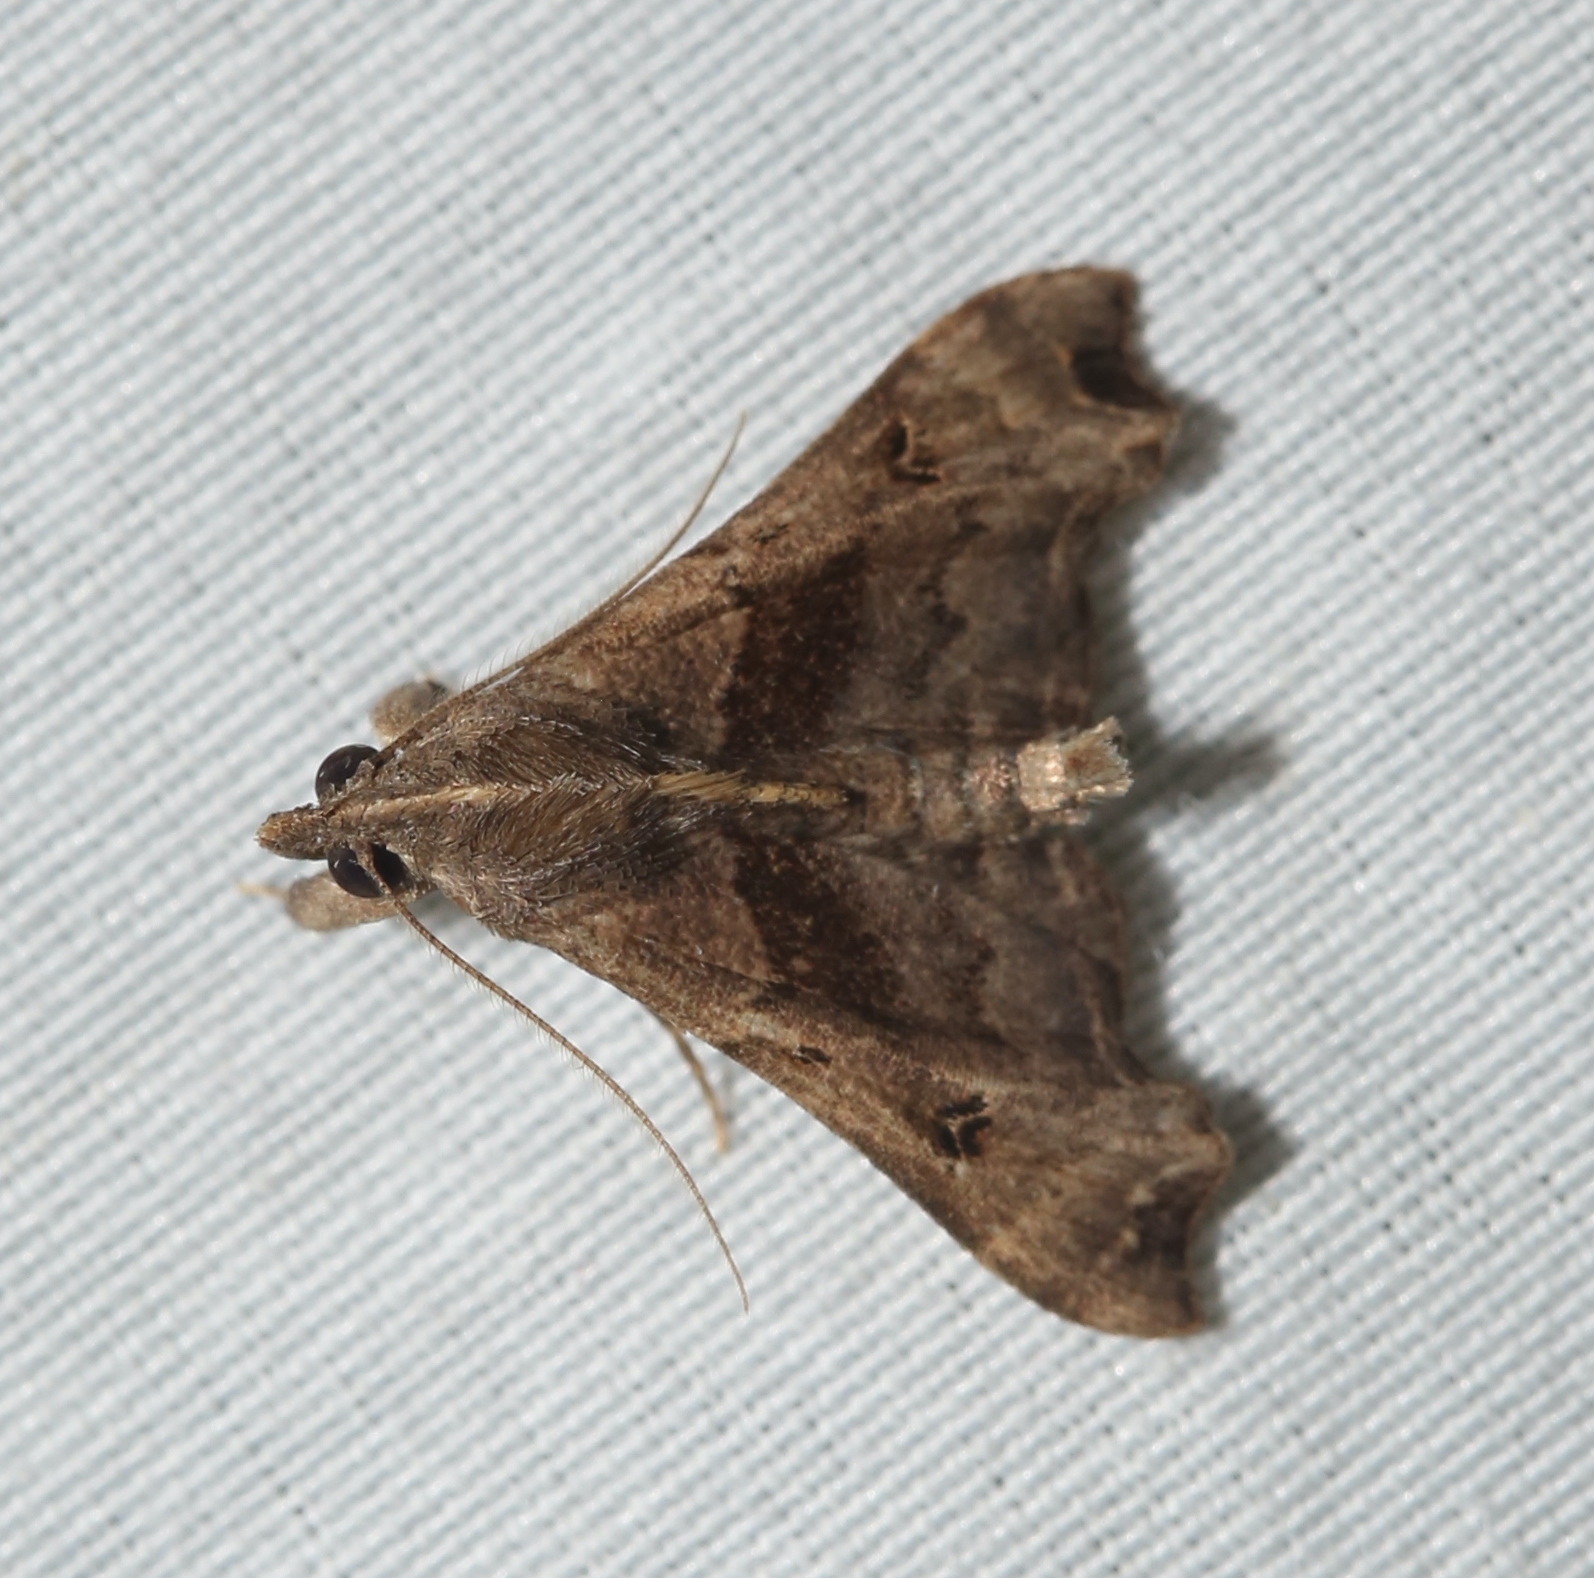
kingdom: Animalia
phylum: Arthropoda
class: Insecta
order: Lepidoptera
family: Erebidae
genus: Palthis
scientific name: Palthis asopialis
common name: Faint-spotted palthis moth
